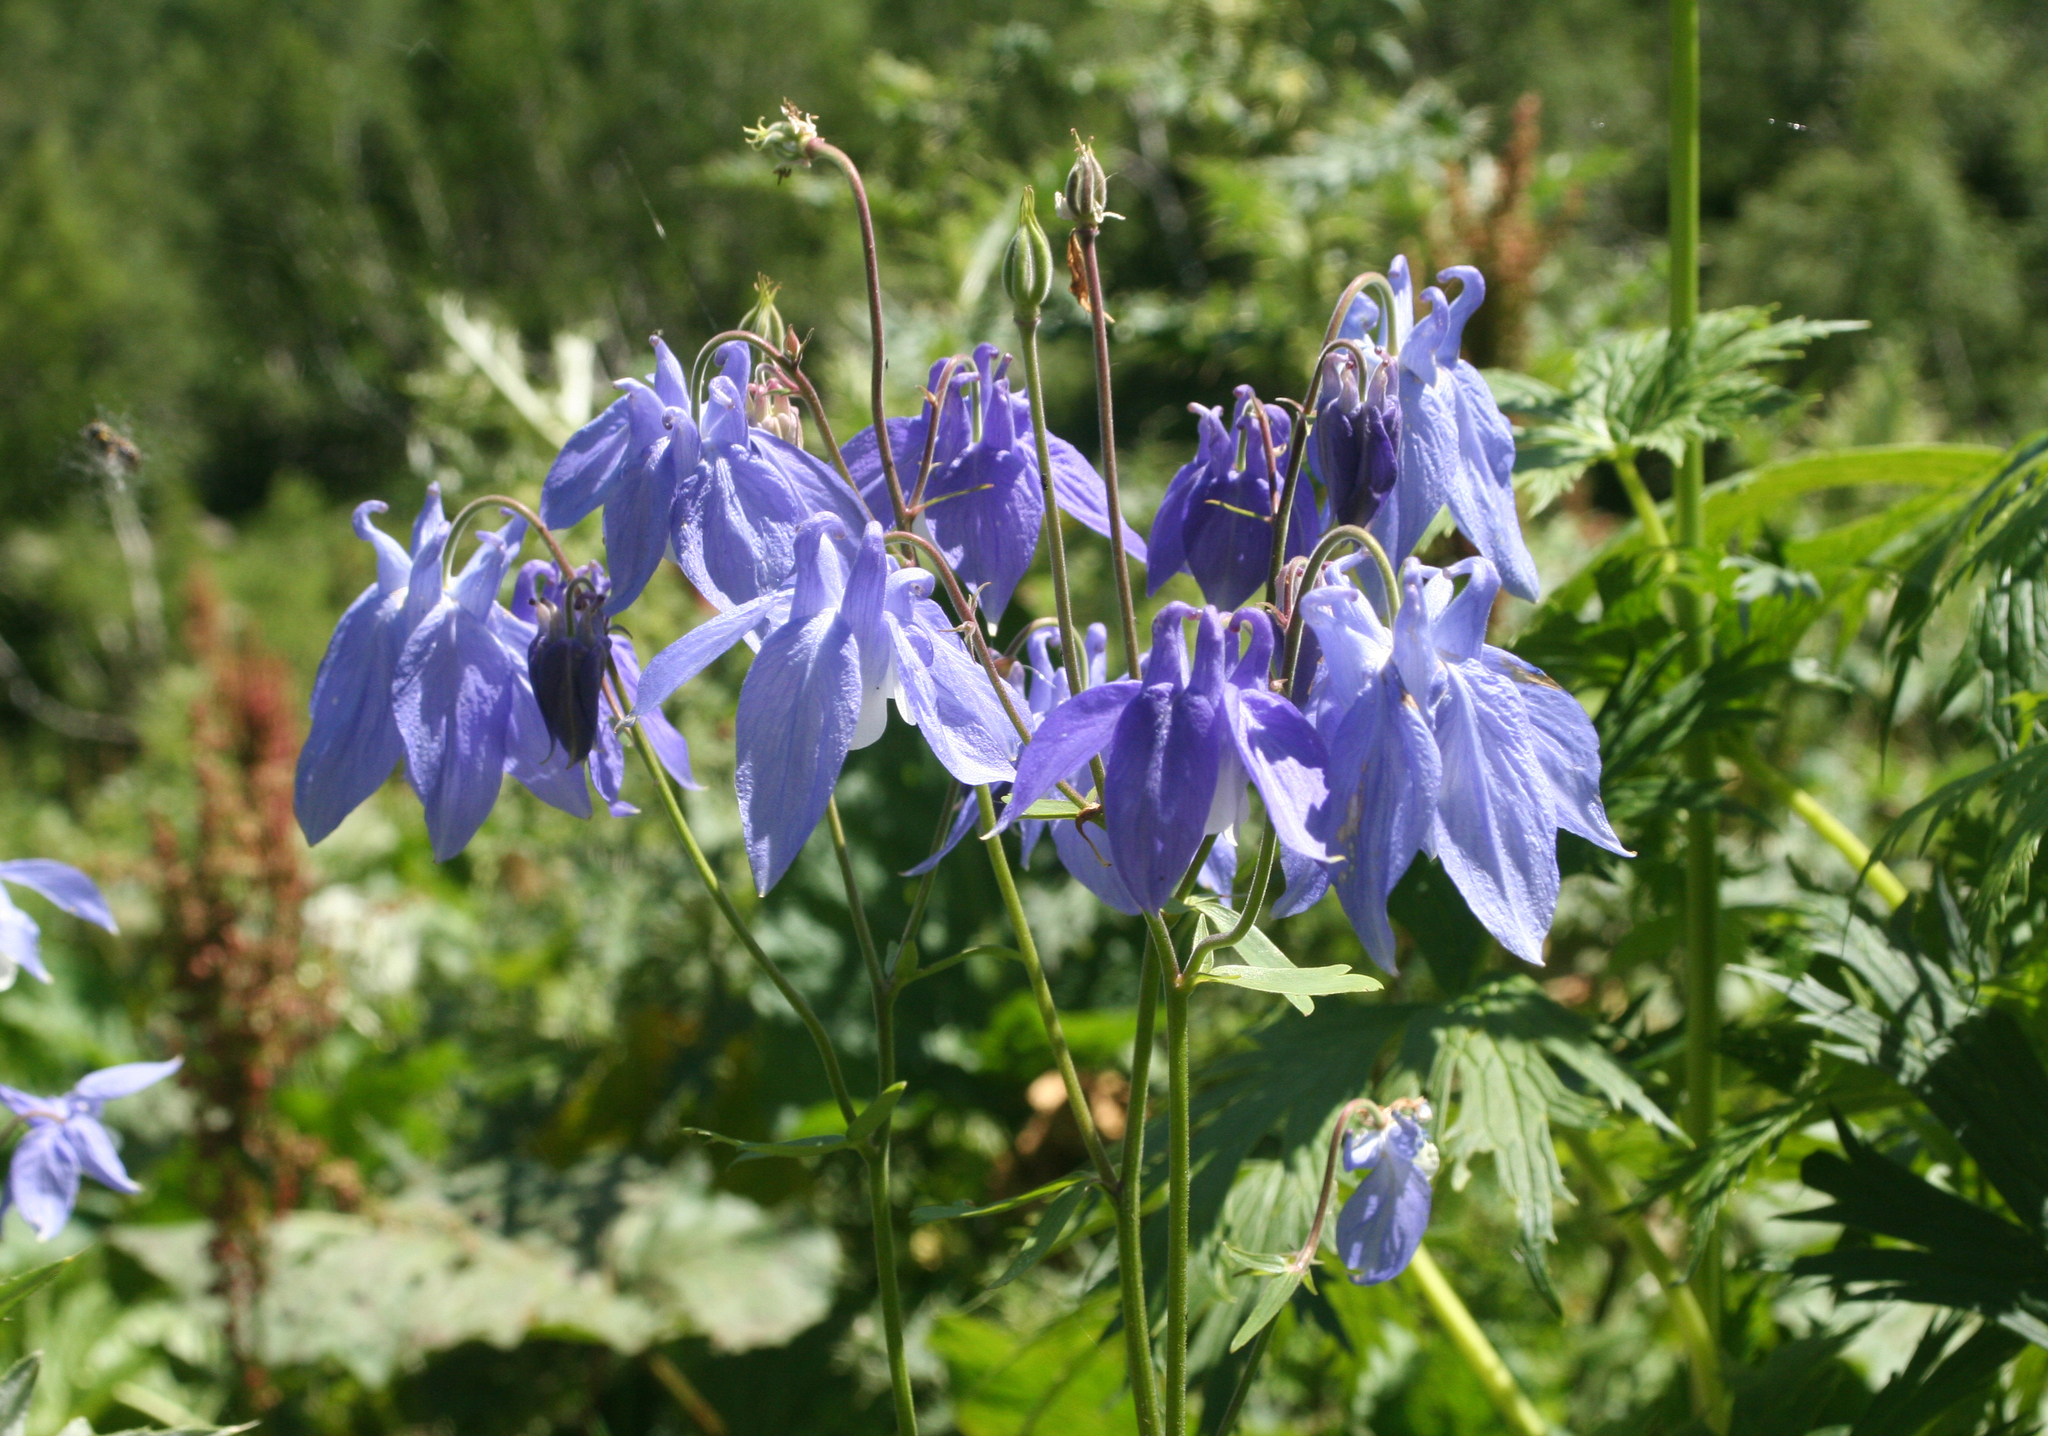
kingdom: Plantae
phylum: Tracheophyta
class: Magnoliopsida
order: Ranunculales
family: Ranunculaceae
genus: Aquilegia
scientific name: Aquilegia olympica
